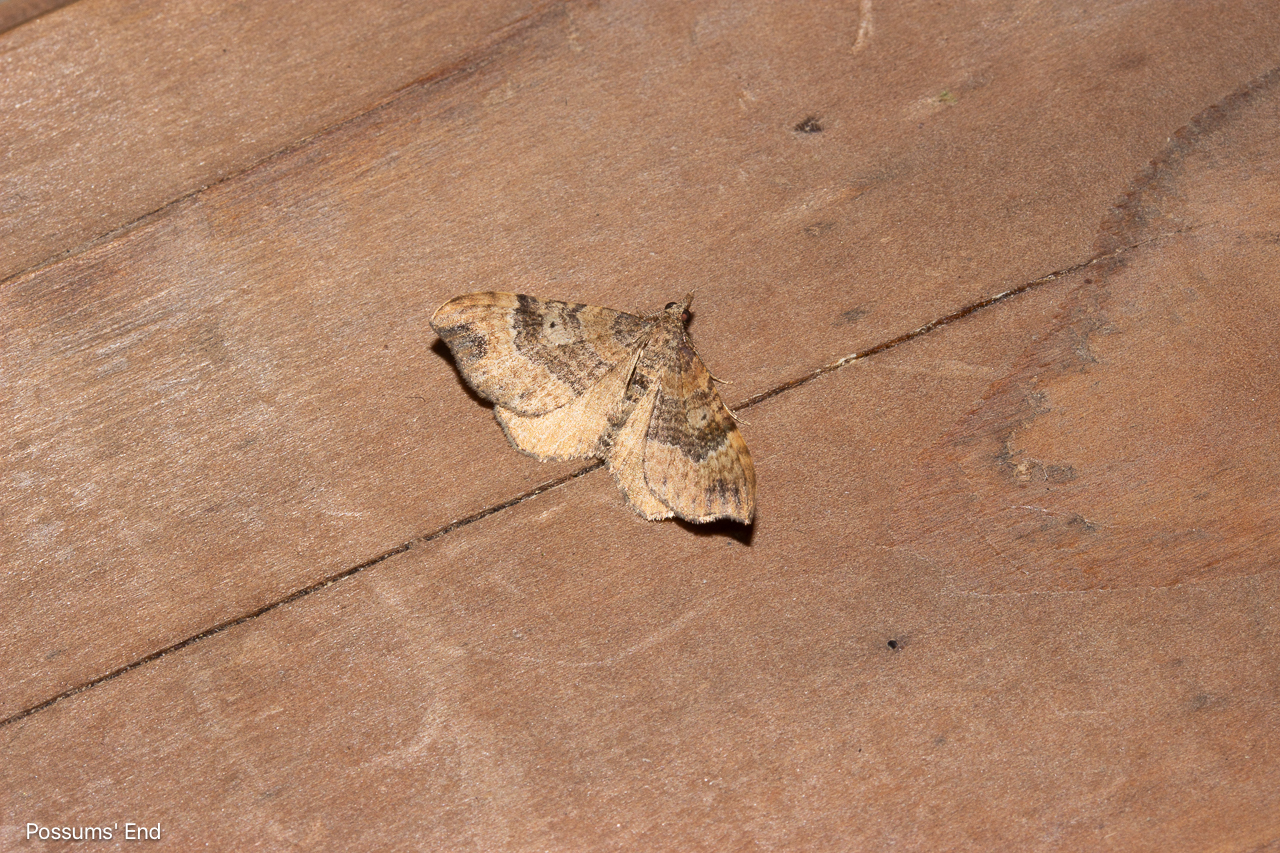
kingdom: Animalia
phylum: Arthropoda
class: Insecta
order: Lepidoptera
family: Geometridae
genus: Homodotis
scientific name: Homodotis megaspilata
